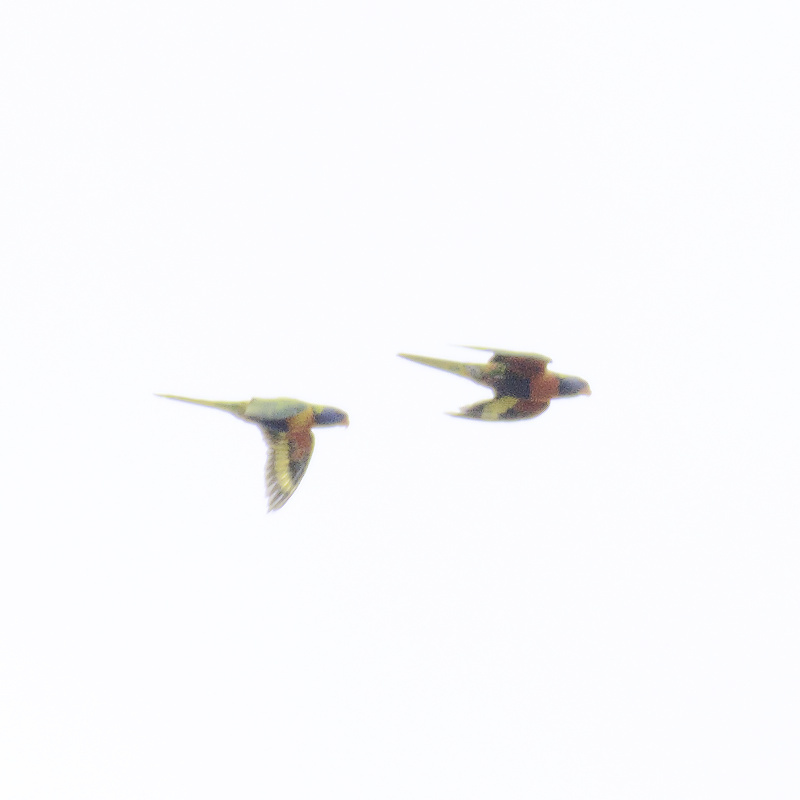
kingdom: Animalia
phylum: Chordata
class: Aves
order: Psittaciformes
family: Psittacidae
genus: Trichoglossus
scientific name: Trichoglossus haematodus
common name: Coconut lorikeet
